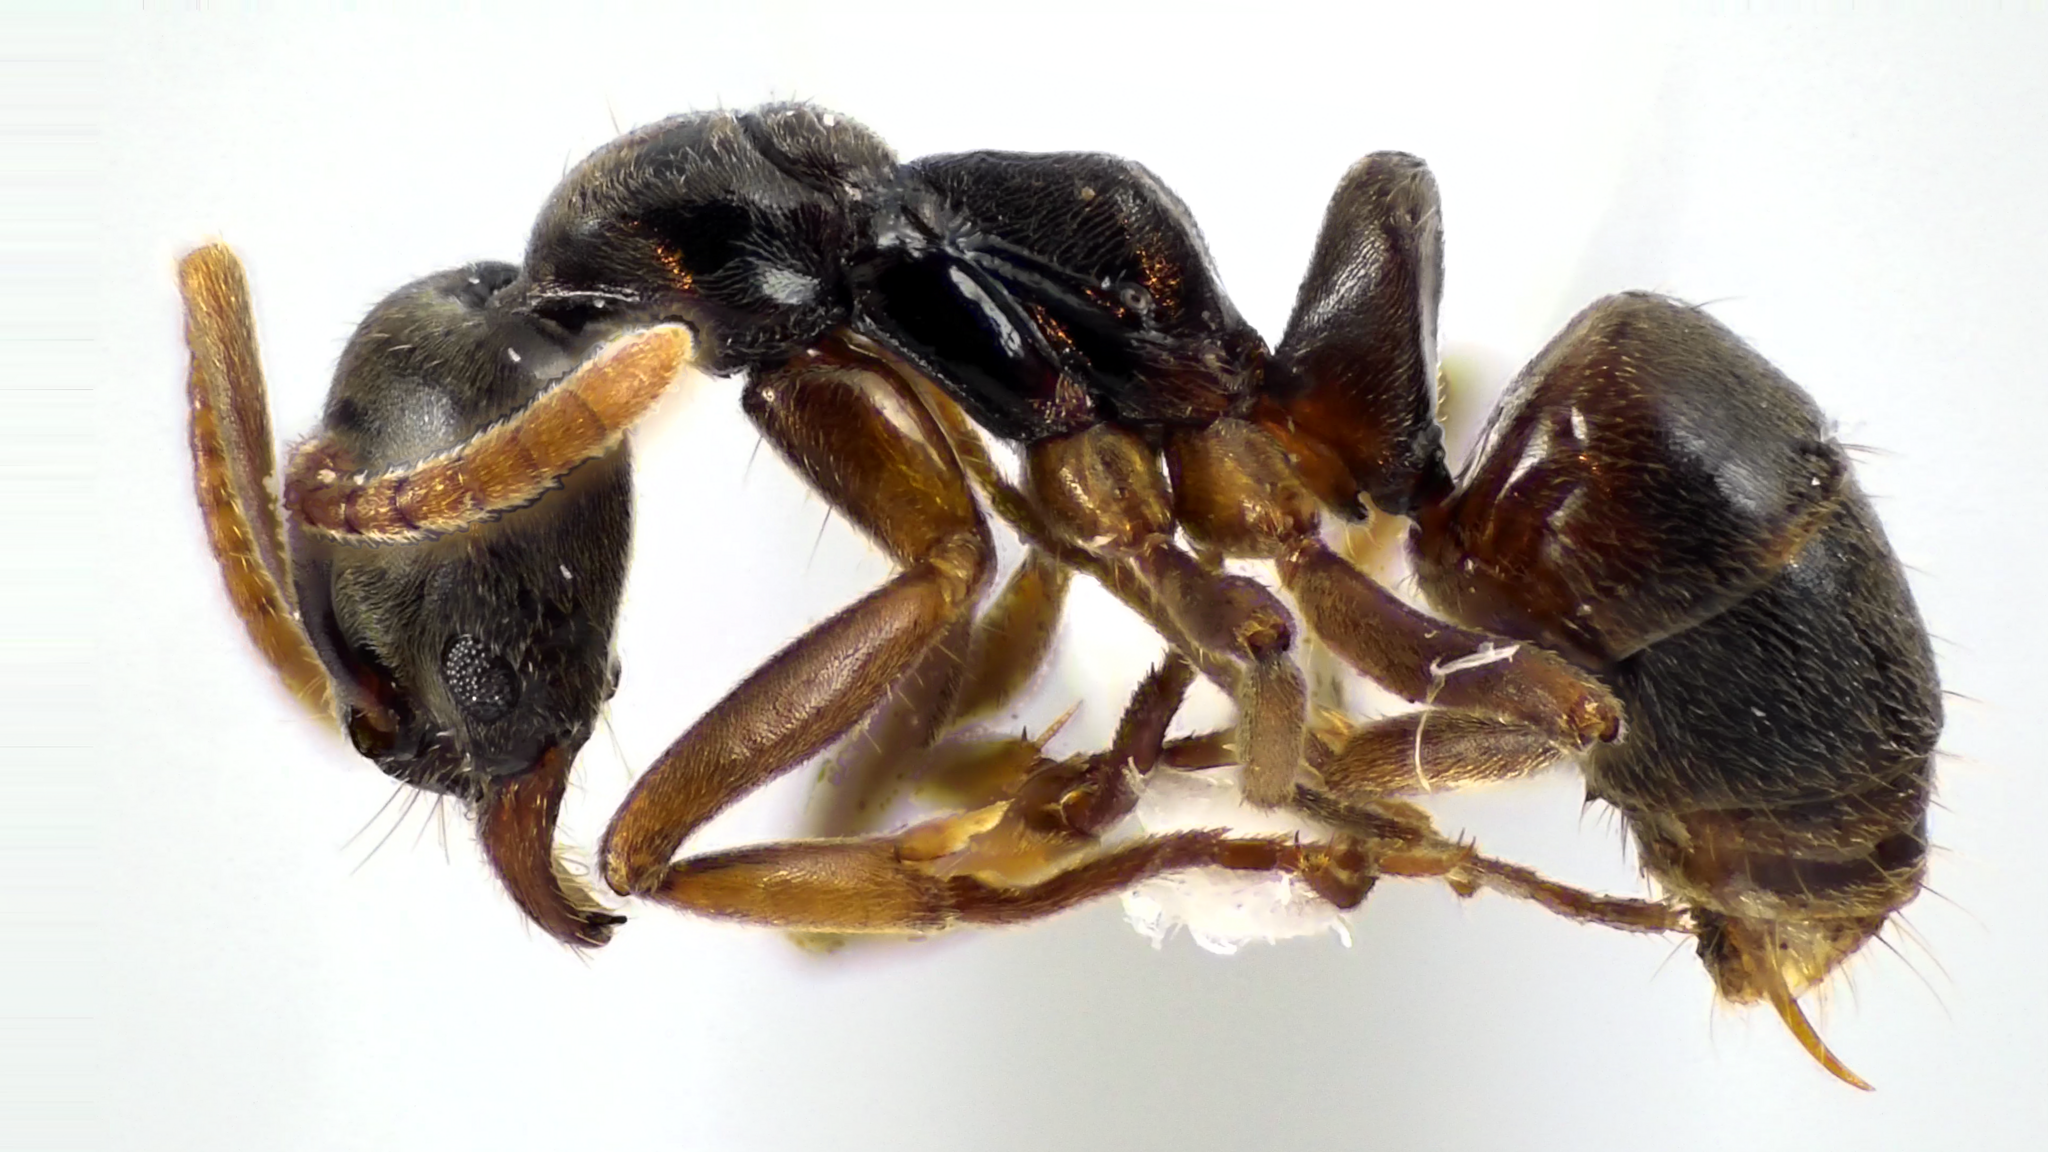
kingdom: Animalia
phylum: Arthropoda
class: Insecta
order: Hymenoptera
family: Formicidae
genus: Pachycondyla
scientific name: Pachycondyla chinensis
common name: Asian needle ant
